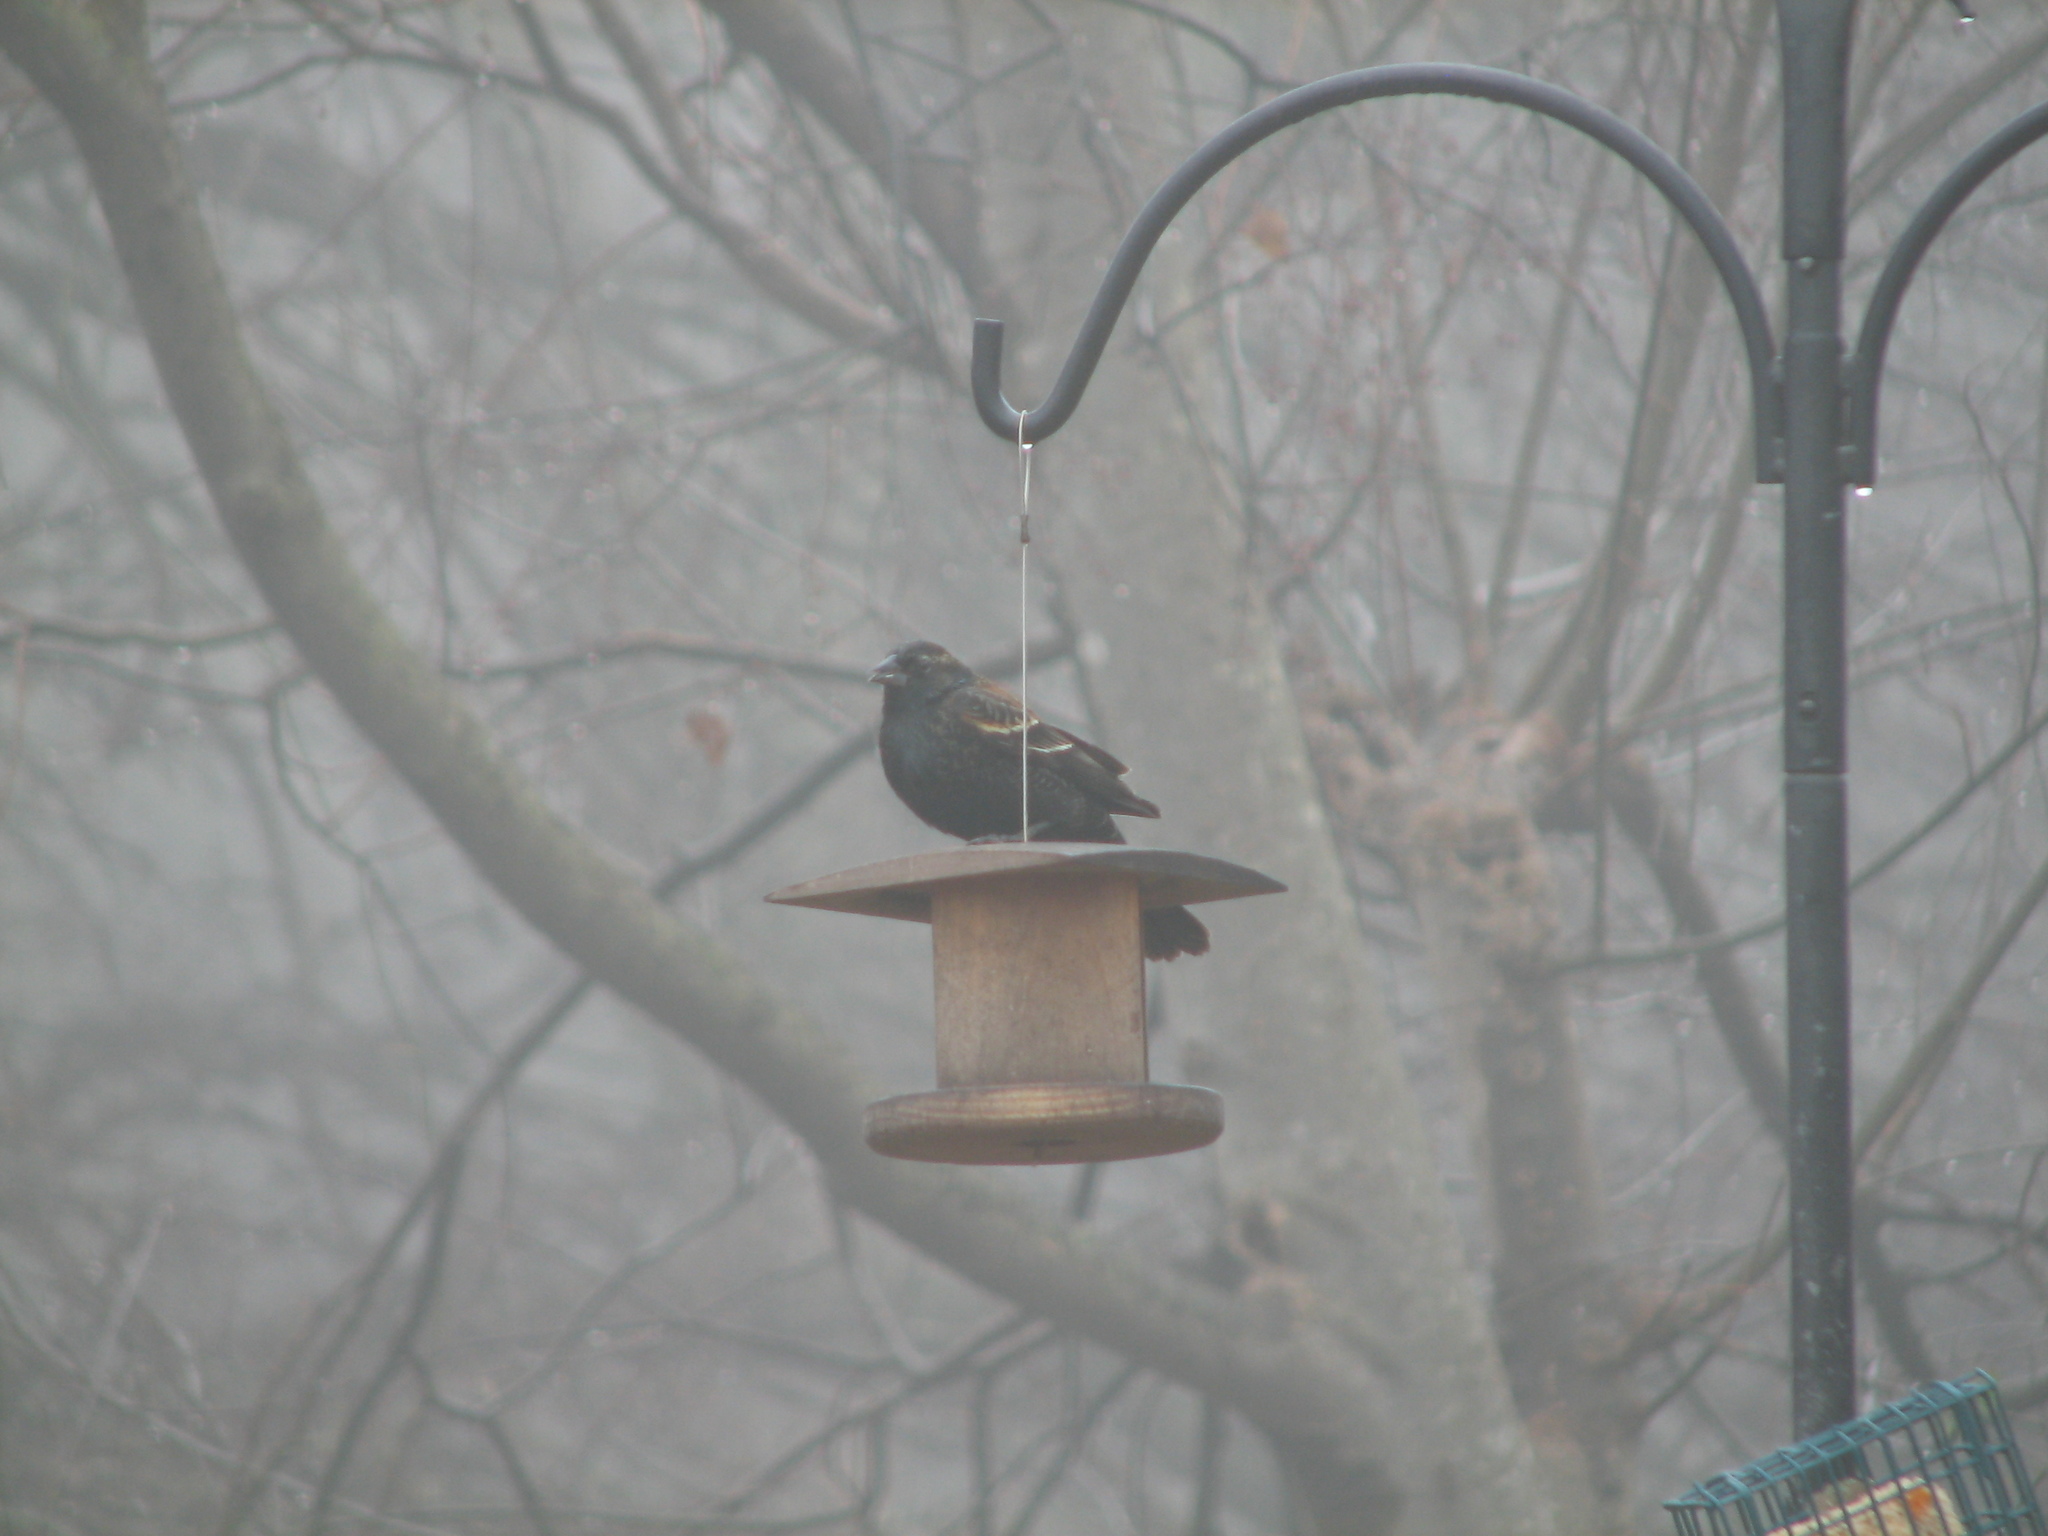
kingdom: Animalia
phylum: Chordata
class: Aves
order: Passeriformes
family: Icteridae
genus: Agelaius
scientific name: Agelaius phoeniceus
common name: Red-winged blackbird
